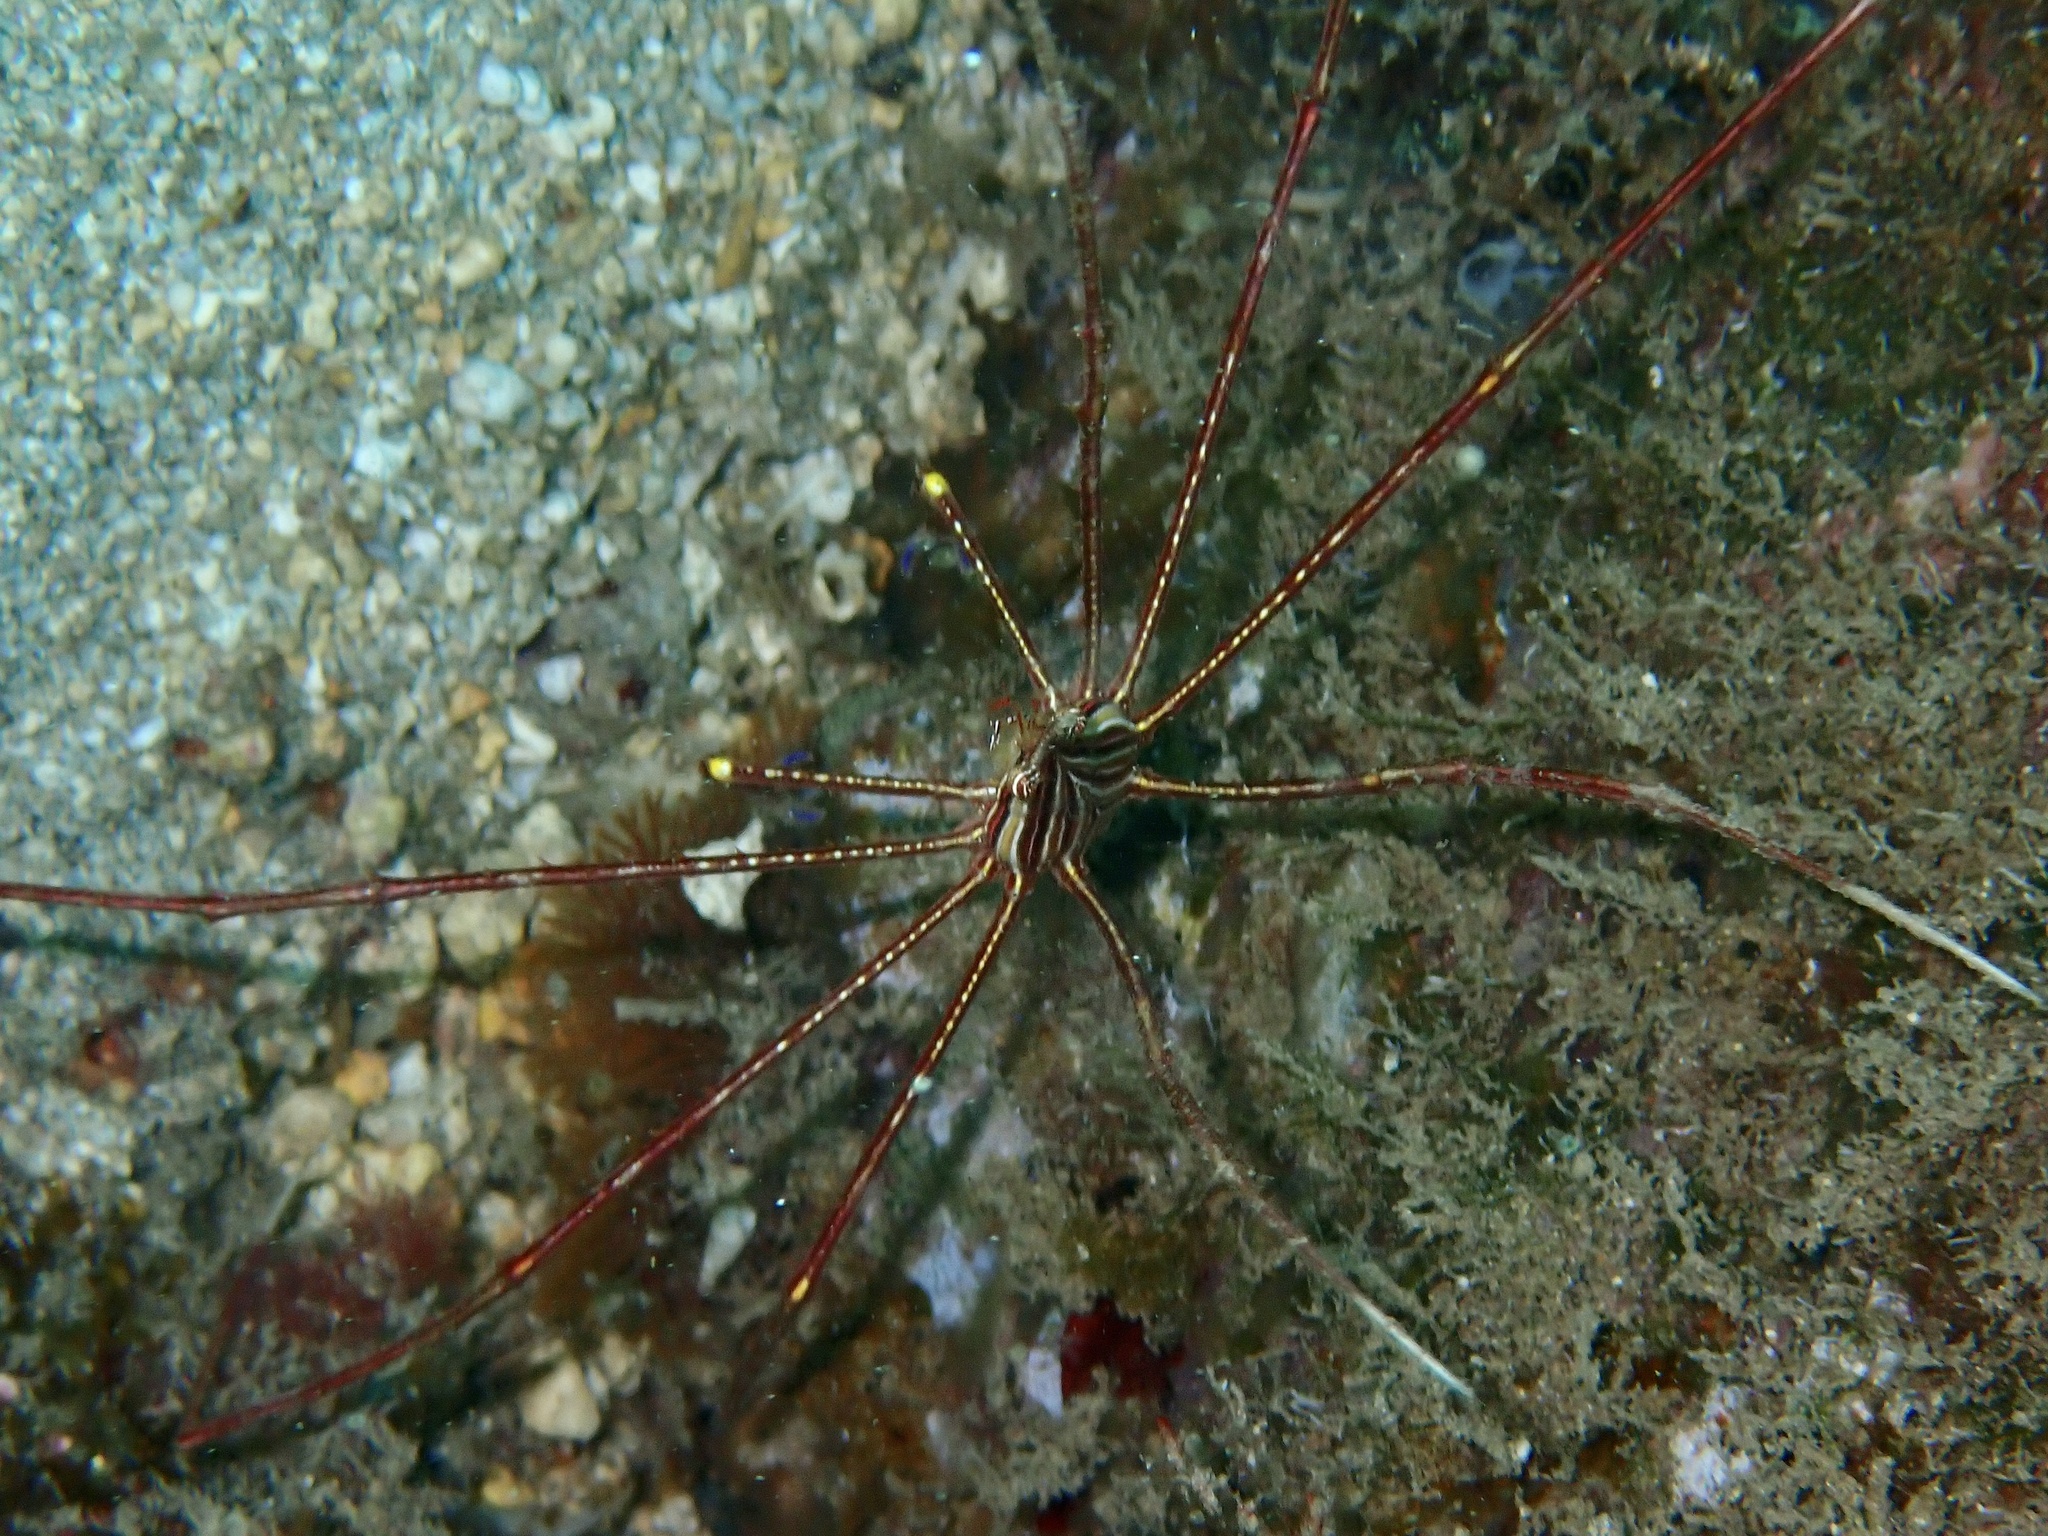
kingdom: Animalia
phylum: Arthropoda
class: Malacostraca
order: Decapoda
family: Inachoididae
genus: Stenorhynchus
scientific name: Stenorhynchus lanceolatus
